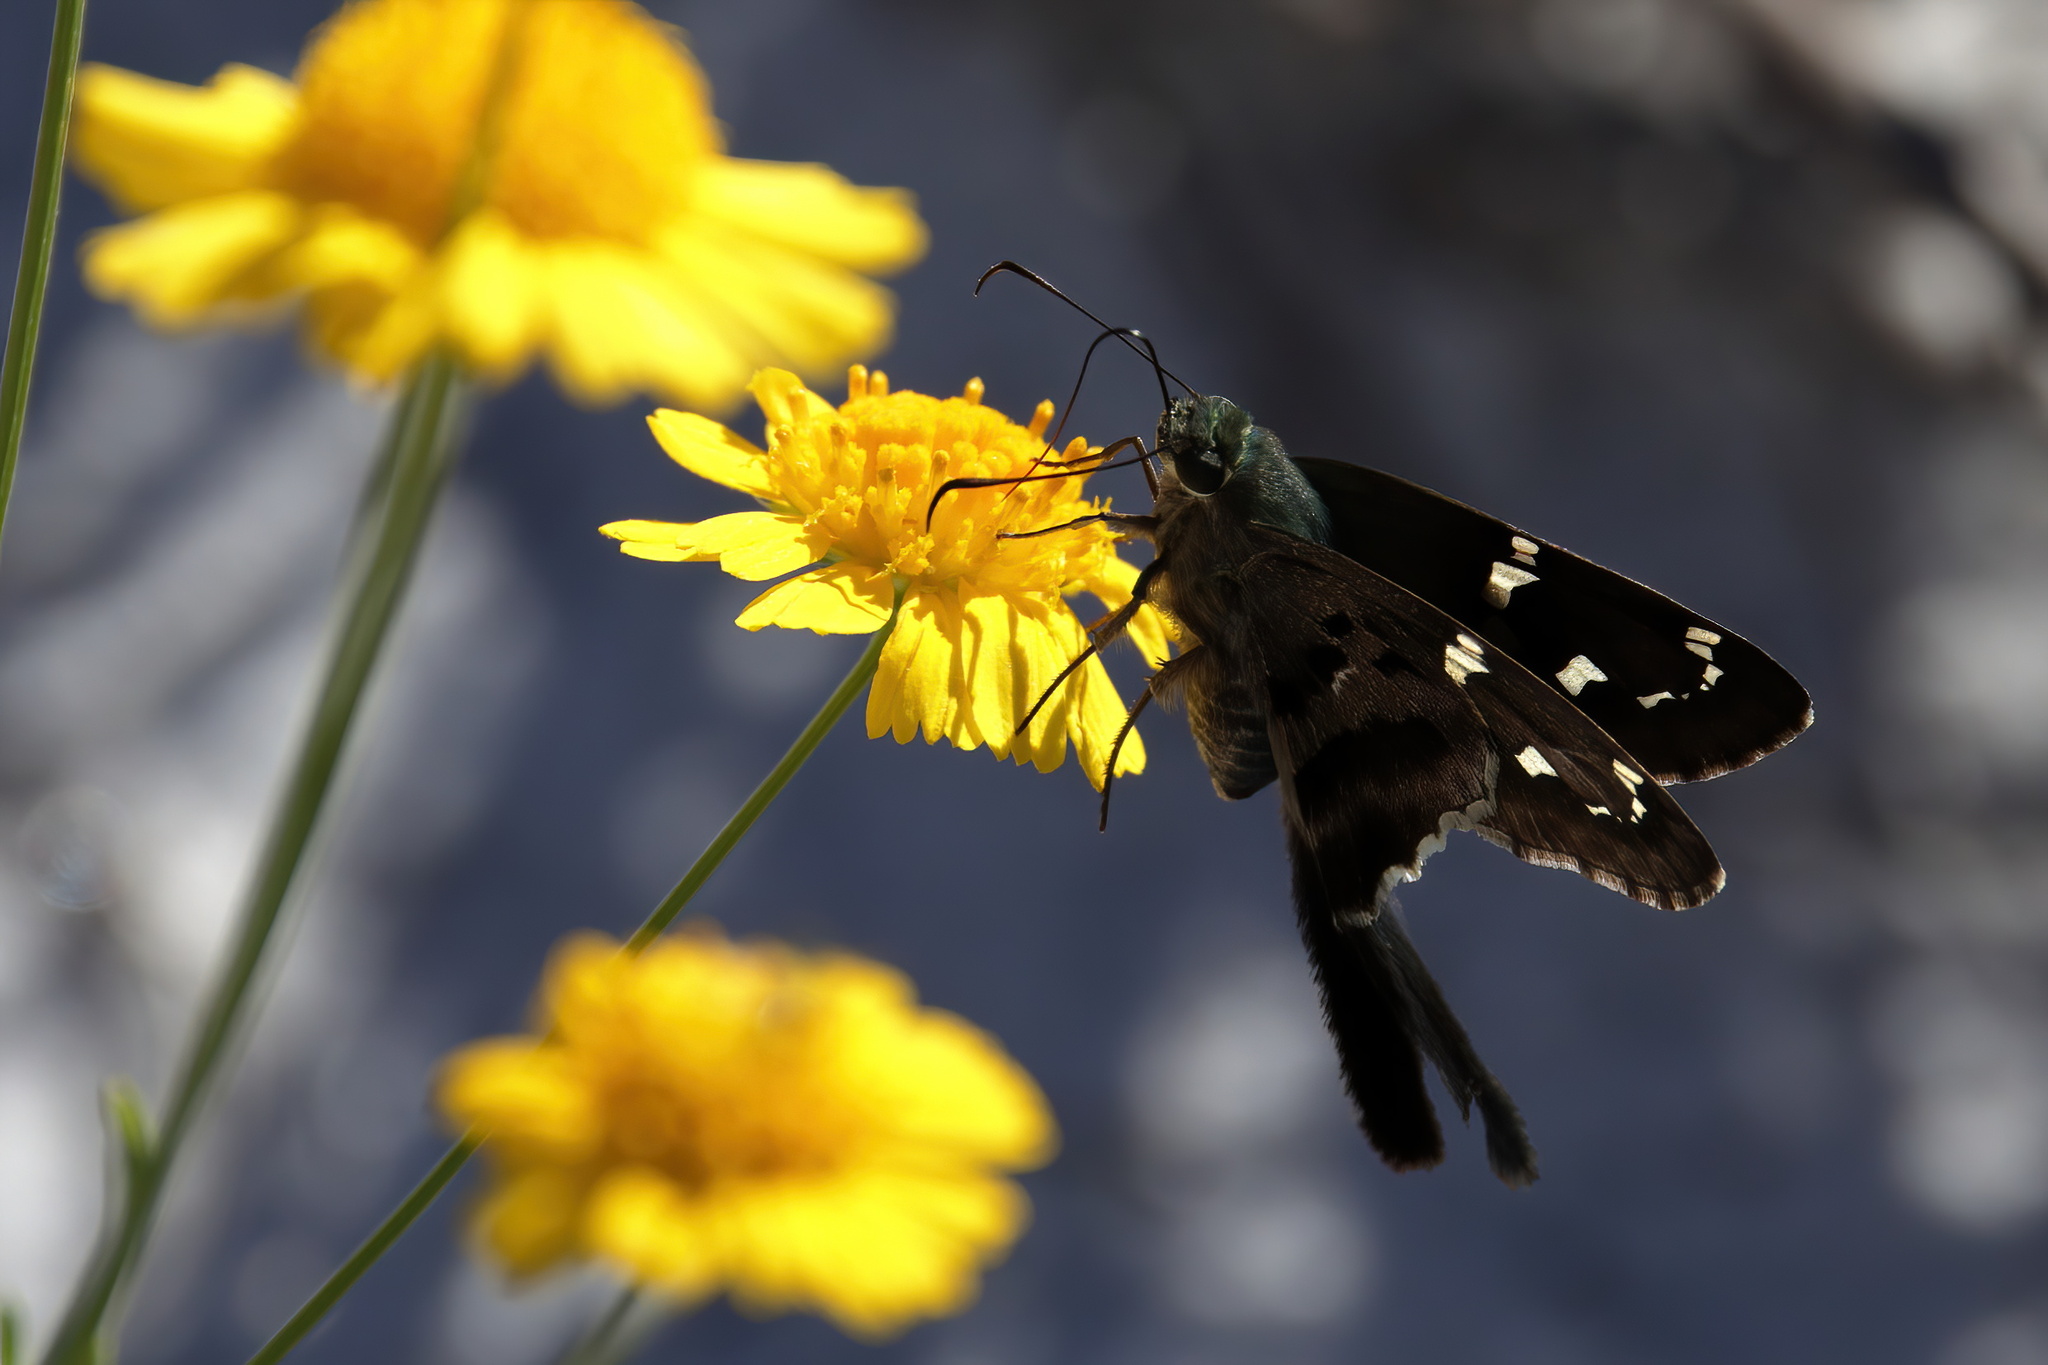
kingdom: Animalia
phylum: Arthropoda
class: Insecta
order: Lepidoptera
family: Hesperiidae
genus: Urbanus
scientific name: Urbanus proteus
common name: Long-tailed skipper
